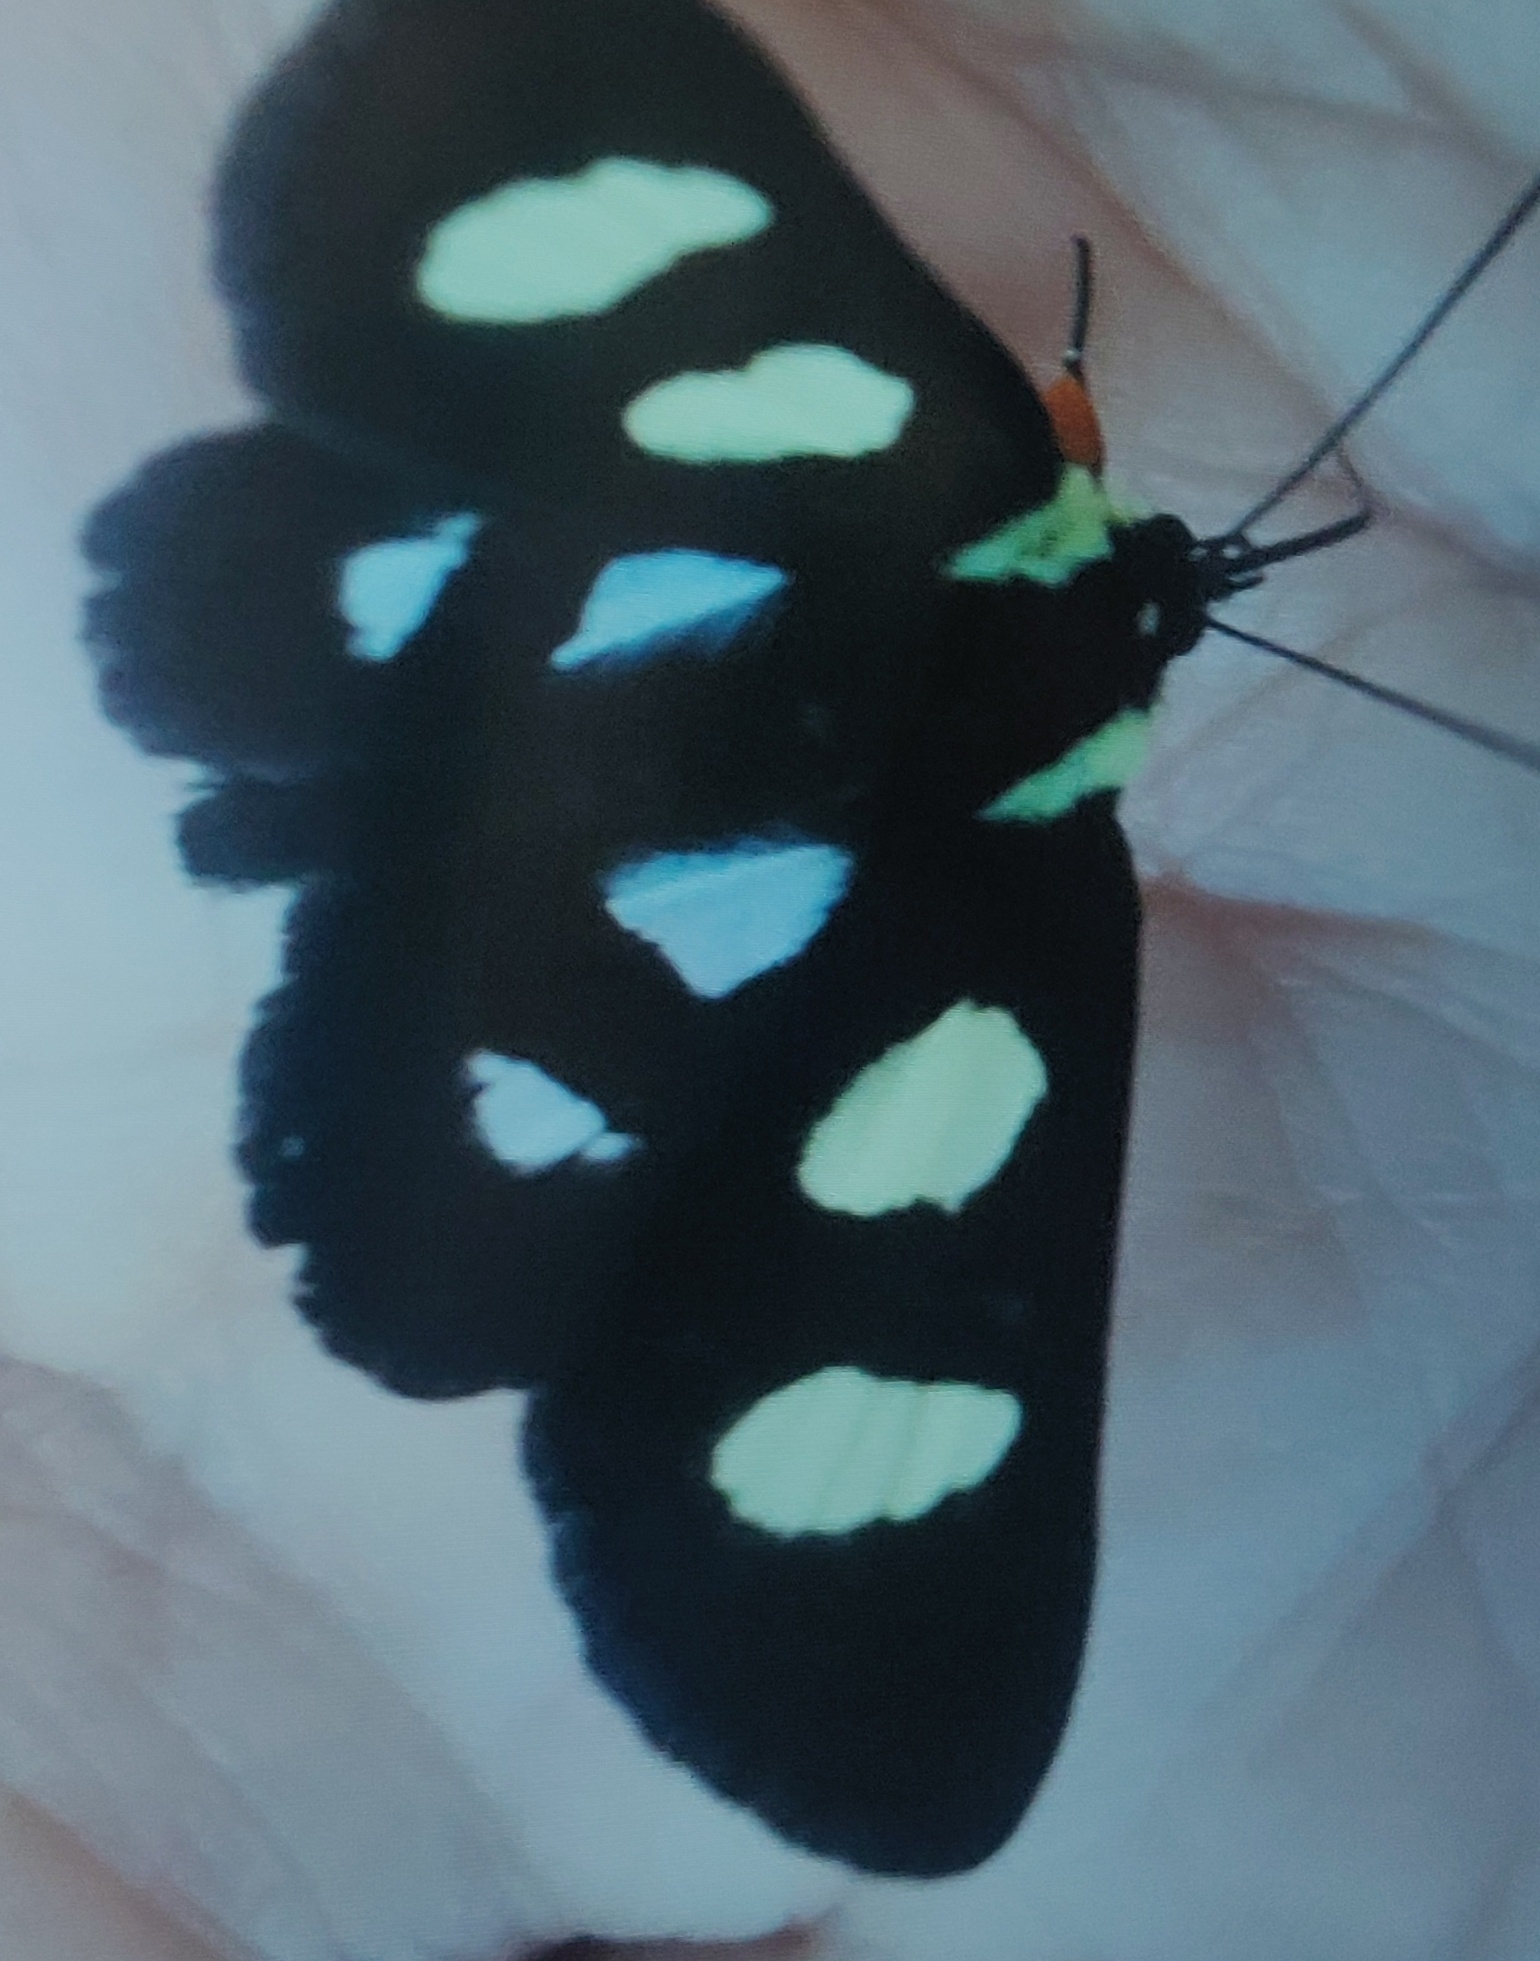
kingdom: Animalia
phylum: Arthropoda
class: Insecta
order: Lepidoptera
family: Noctuidae
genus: Alypia
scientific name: Alypia octomaculata
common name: Eight-spotted forester
